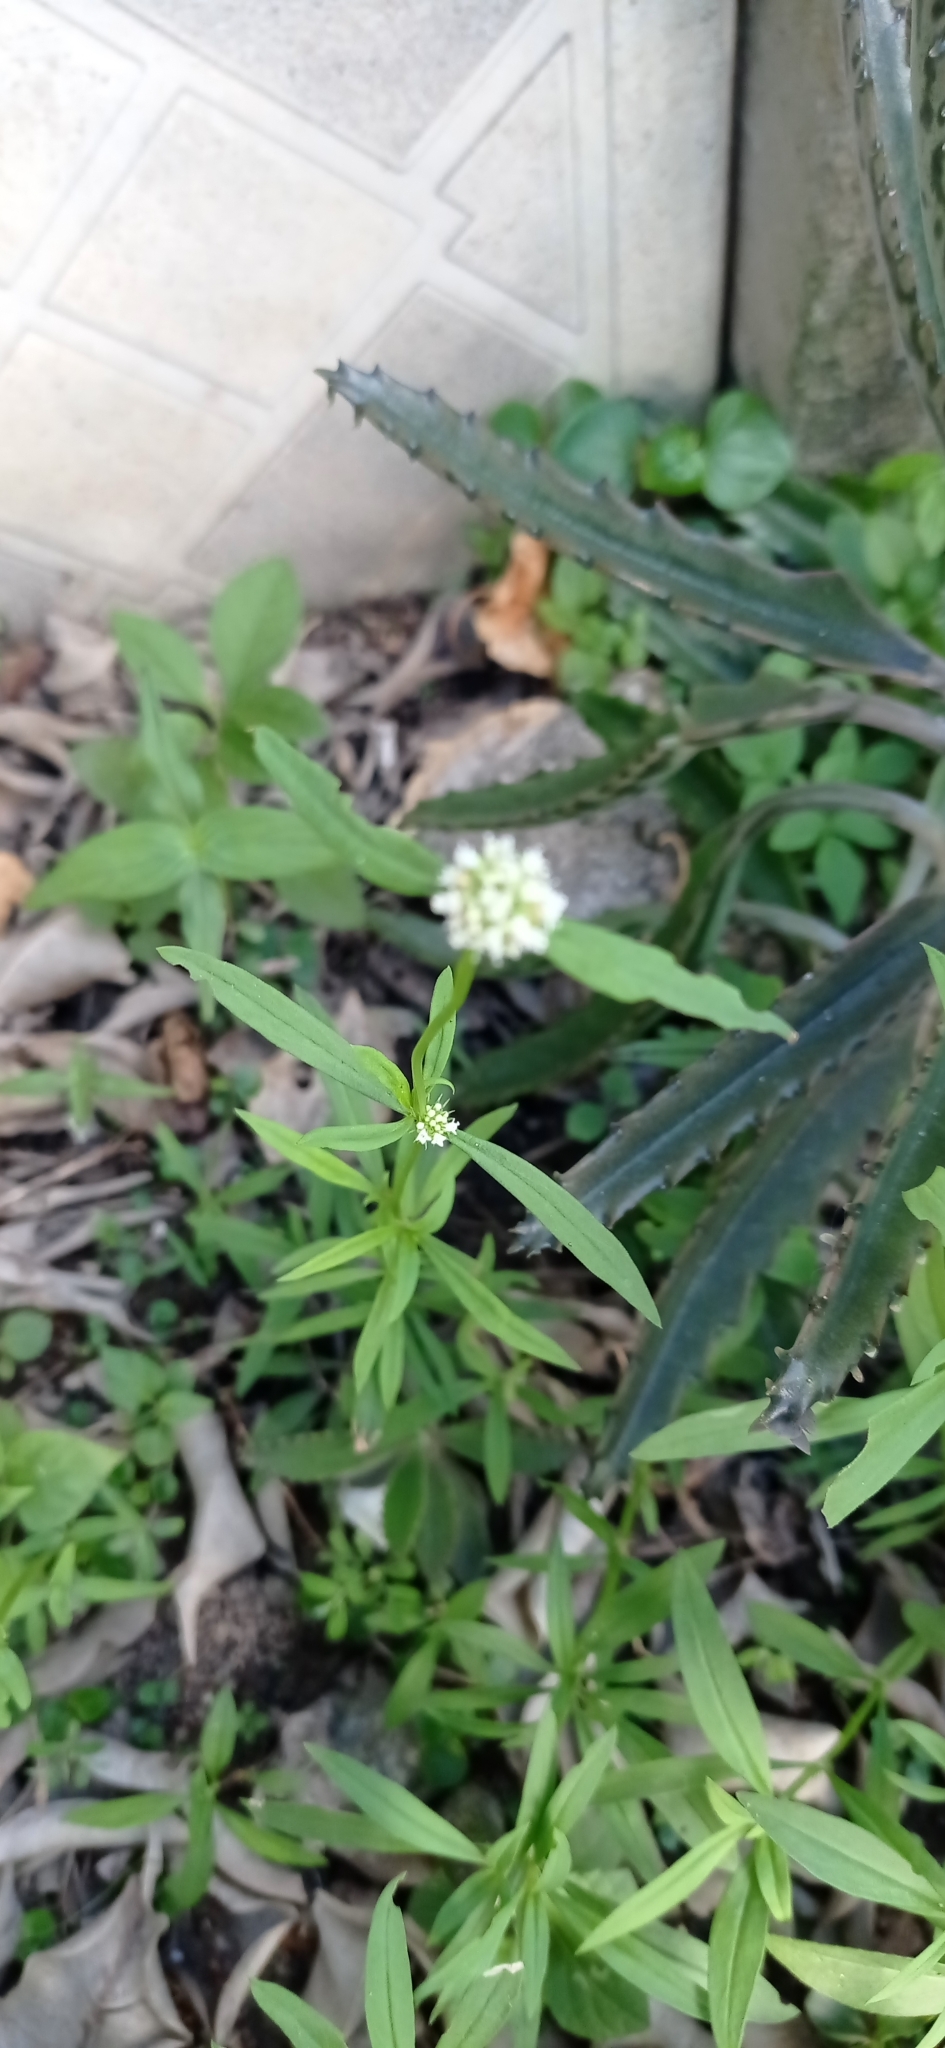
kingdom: Plantae
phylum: Tracheophyta
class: Magnoliopsida
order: Gentianales
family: Rubiaceae
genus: Spermacoce
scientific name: Spermacoce verticillata
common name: Shrubby false buttonweed
